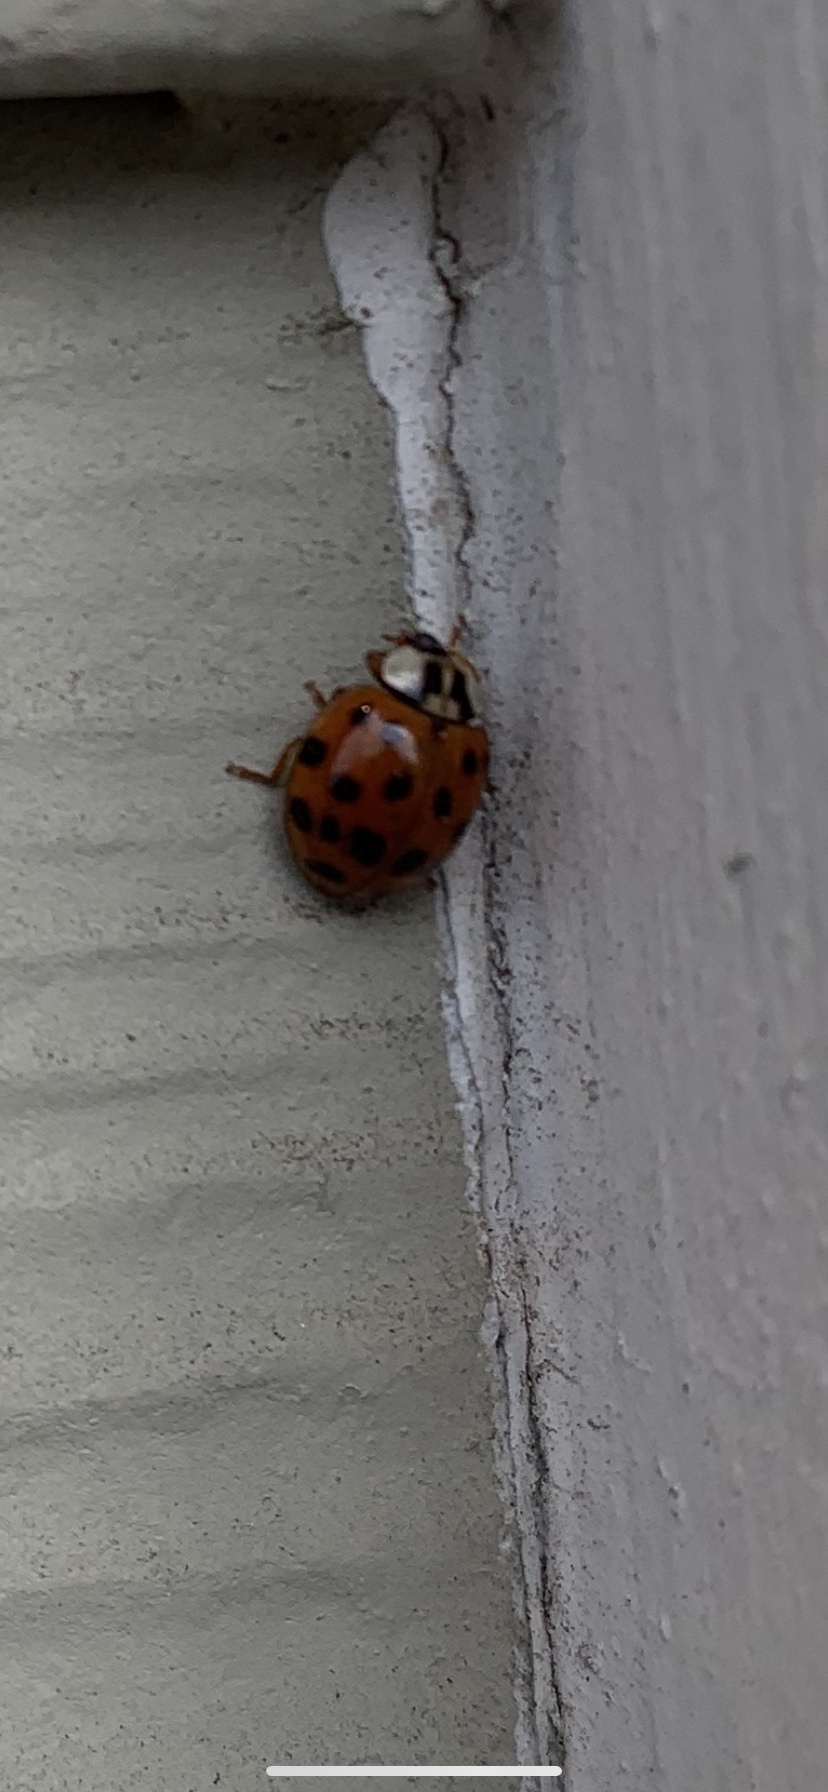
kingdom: Animalia
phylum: Arthropoda
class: Insecta
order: Coleoptera
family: Coccinellidae
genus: Harmonia
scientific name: Harmonia axyridis
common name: Harlequin ladybird
